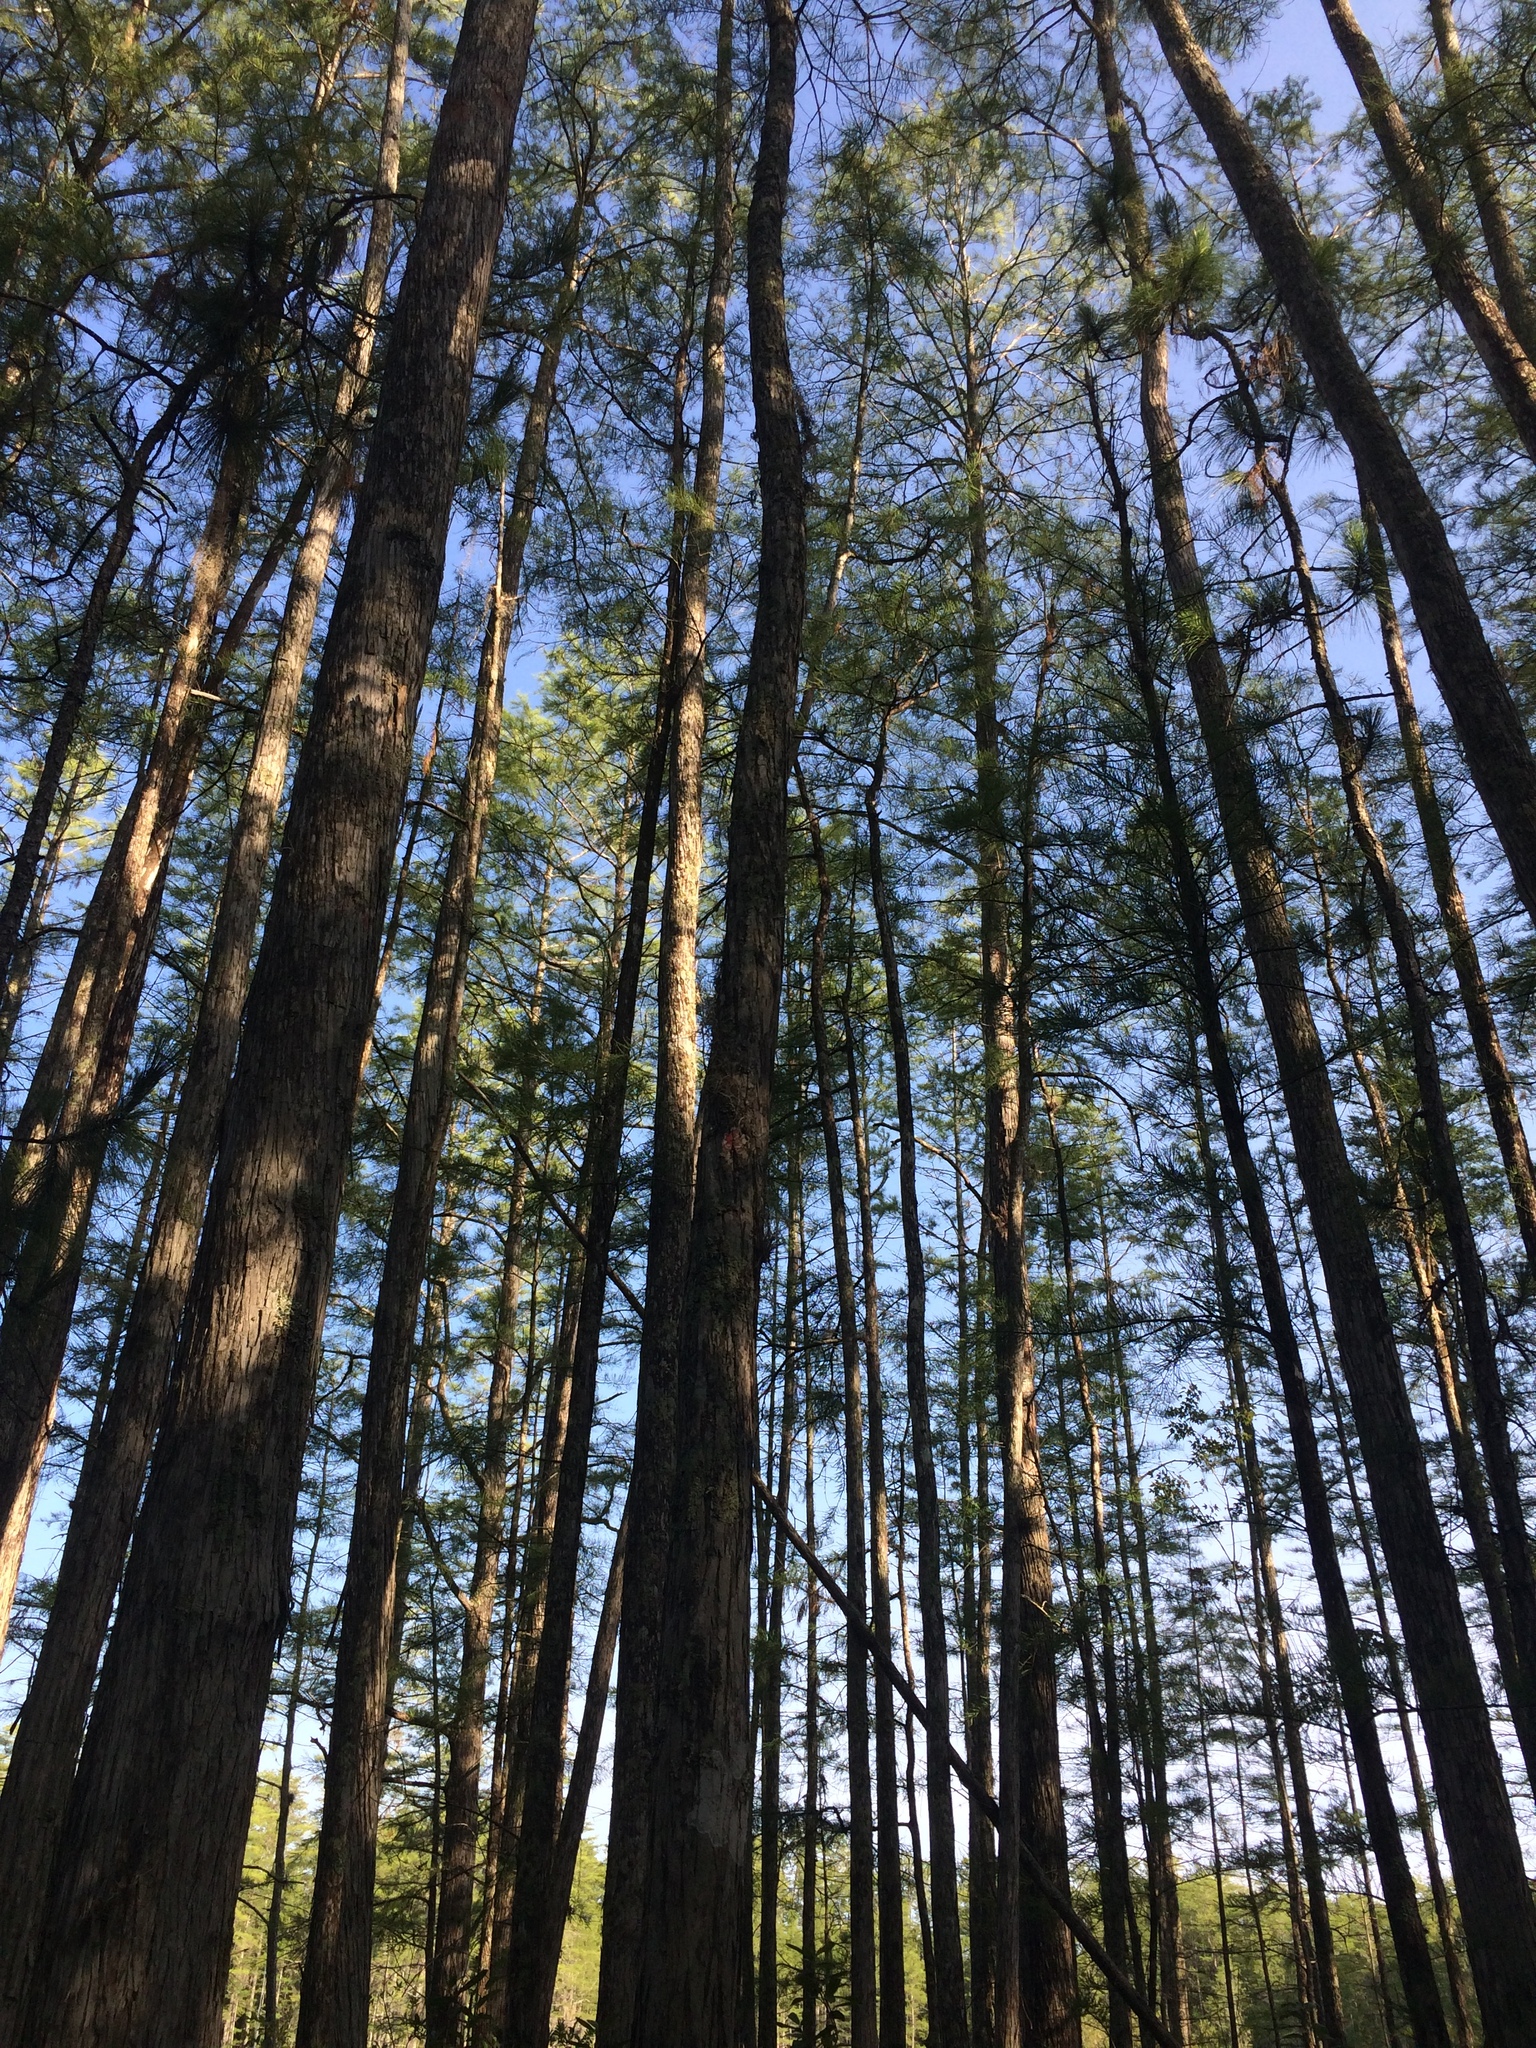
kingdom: Plantae
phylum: Tracheophyta
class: Pinopsida
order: Pinales
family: Cupressaceae
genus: Taxodium
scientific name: Taxodium distichum
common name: Bald cypress
